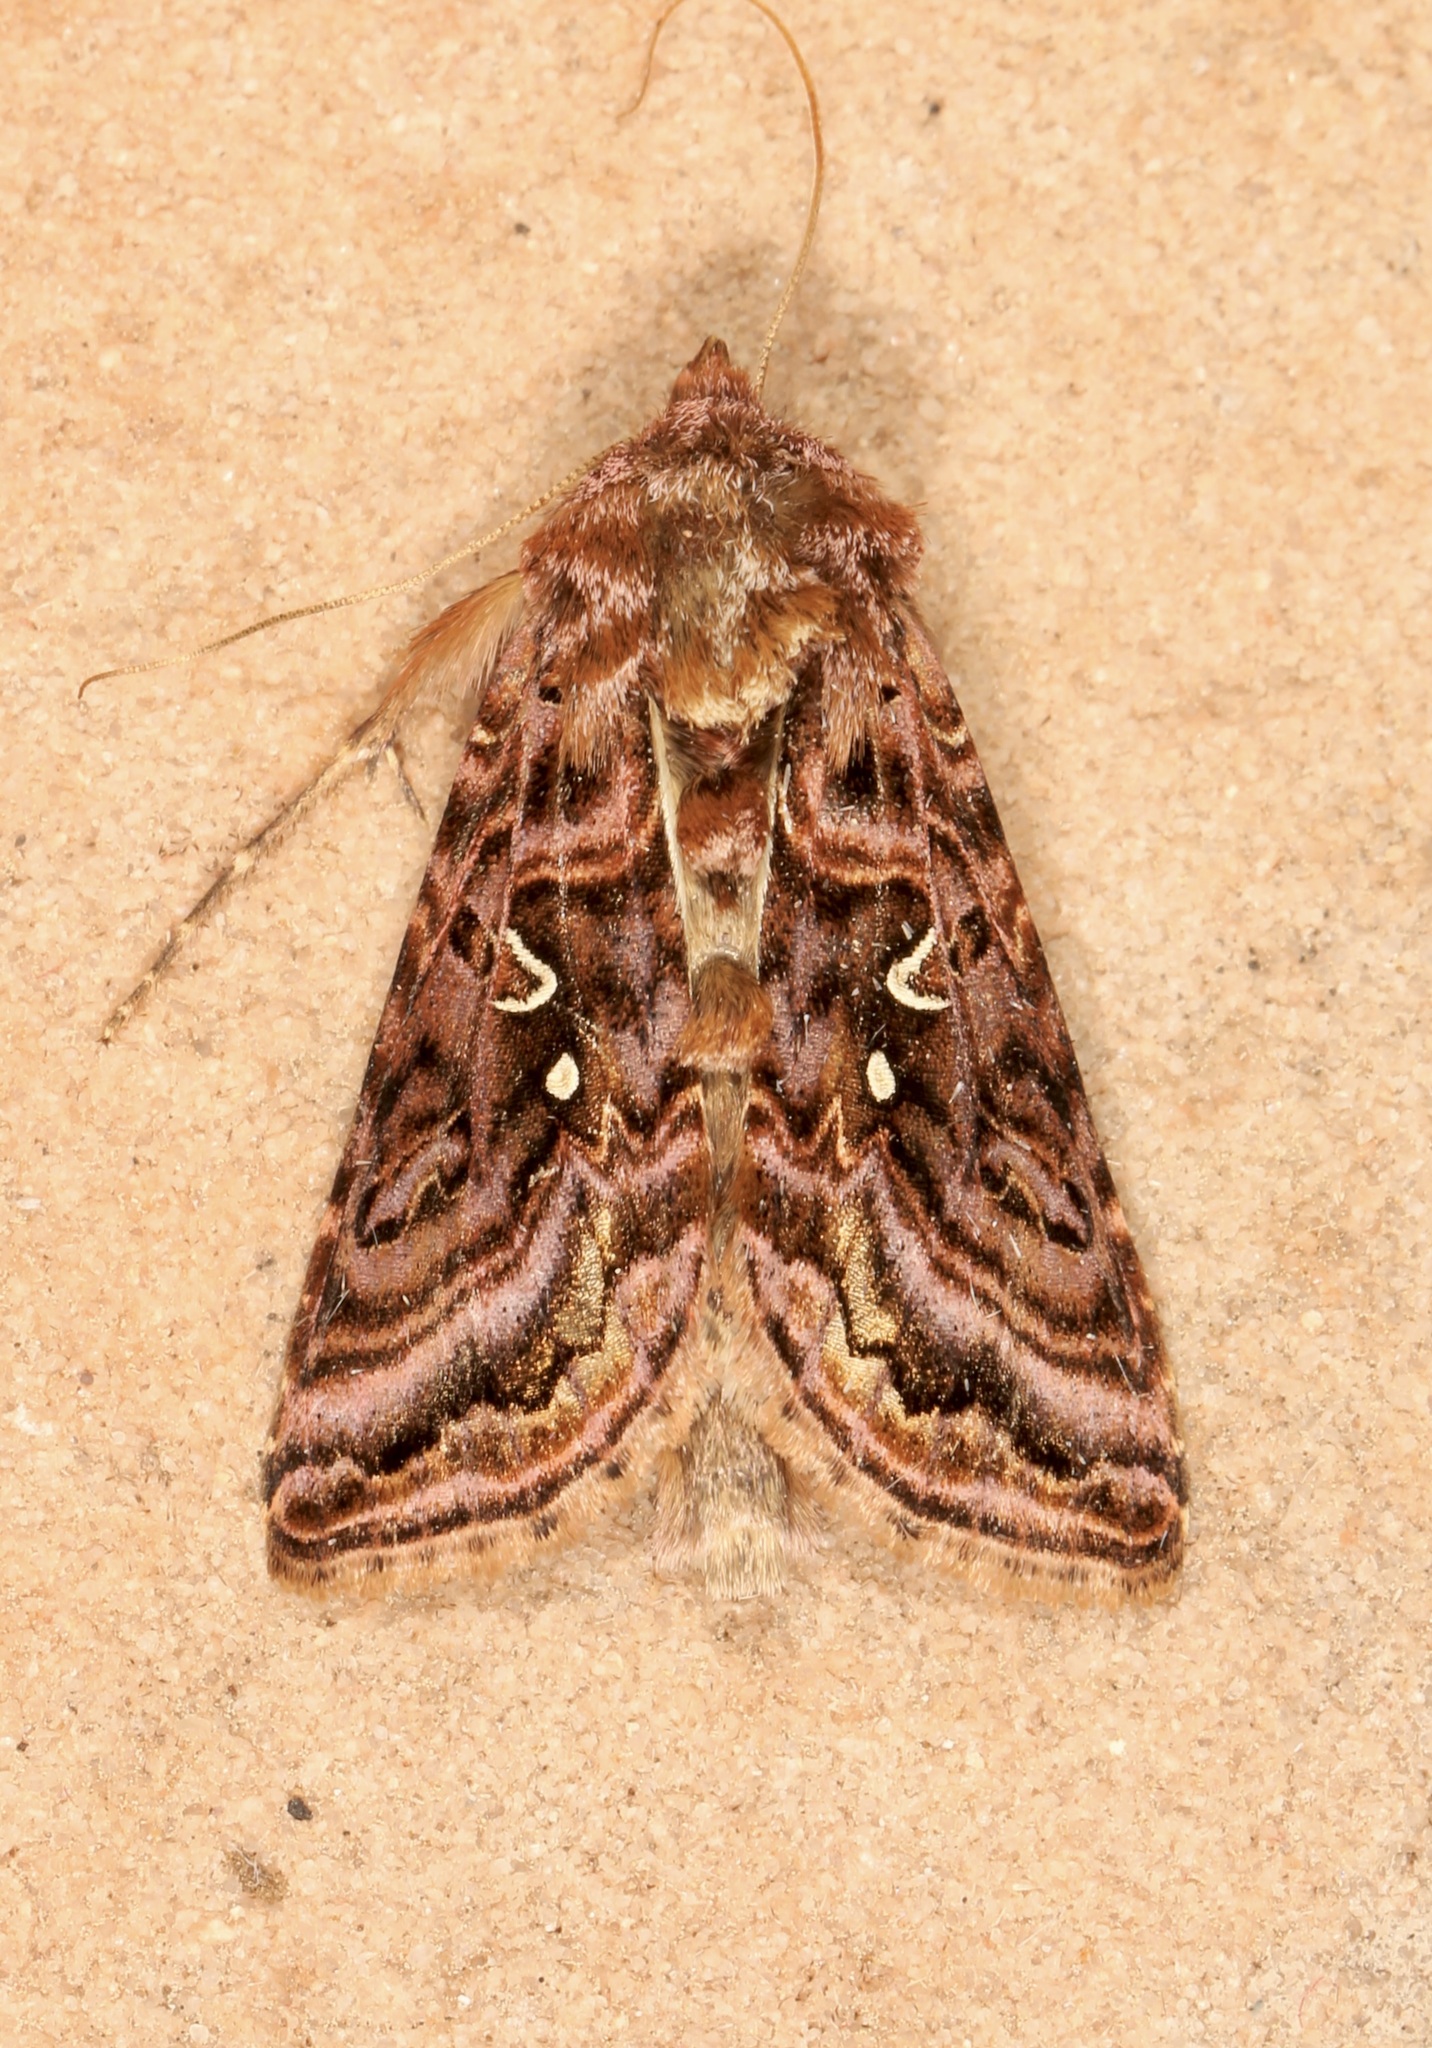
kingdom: Animalia
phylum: Arthropoda
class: Insecta
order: Lepidoptera
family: Noctuidae
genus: Autographa
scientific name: Autographa mappa
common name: Wavy chestnut y moth
